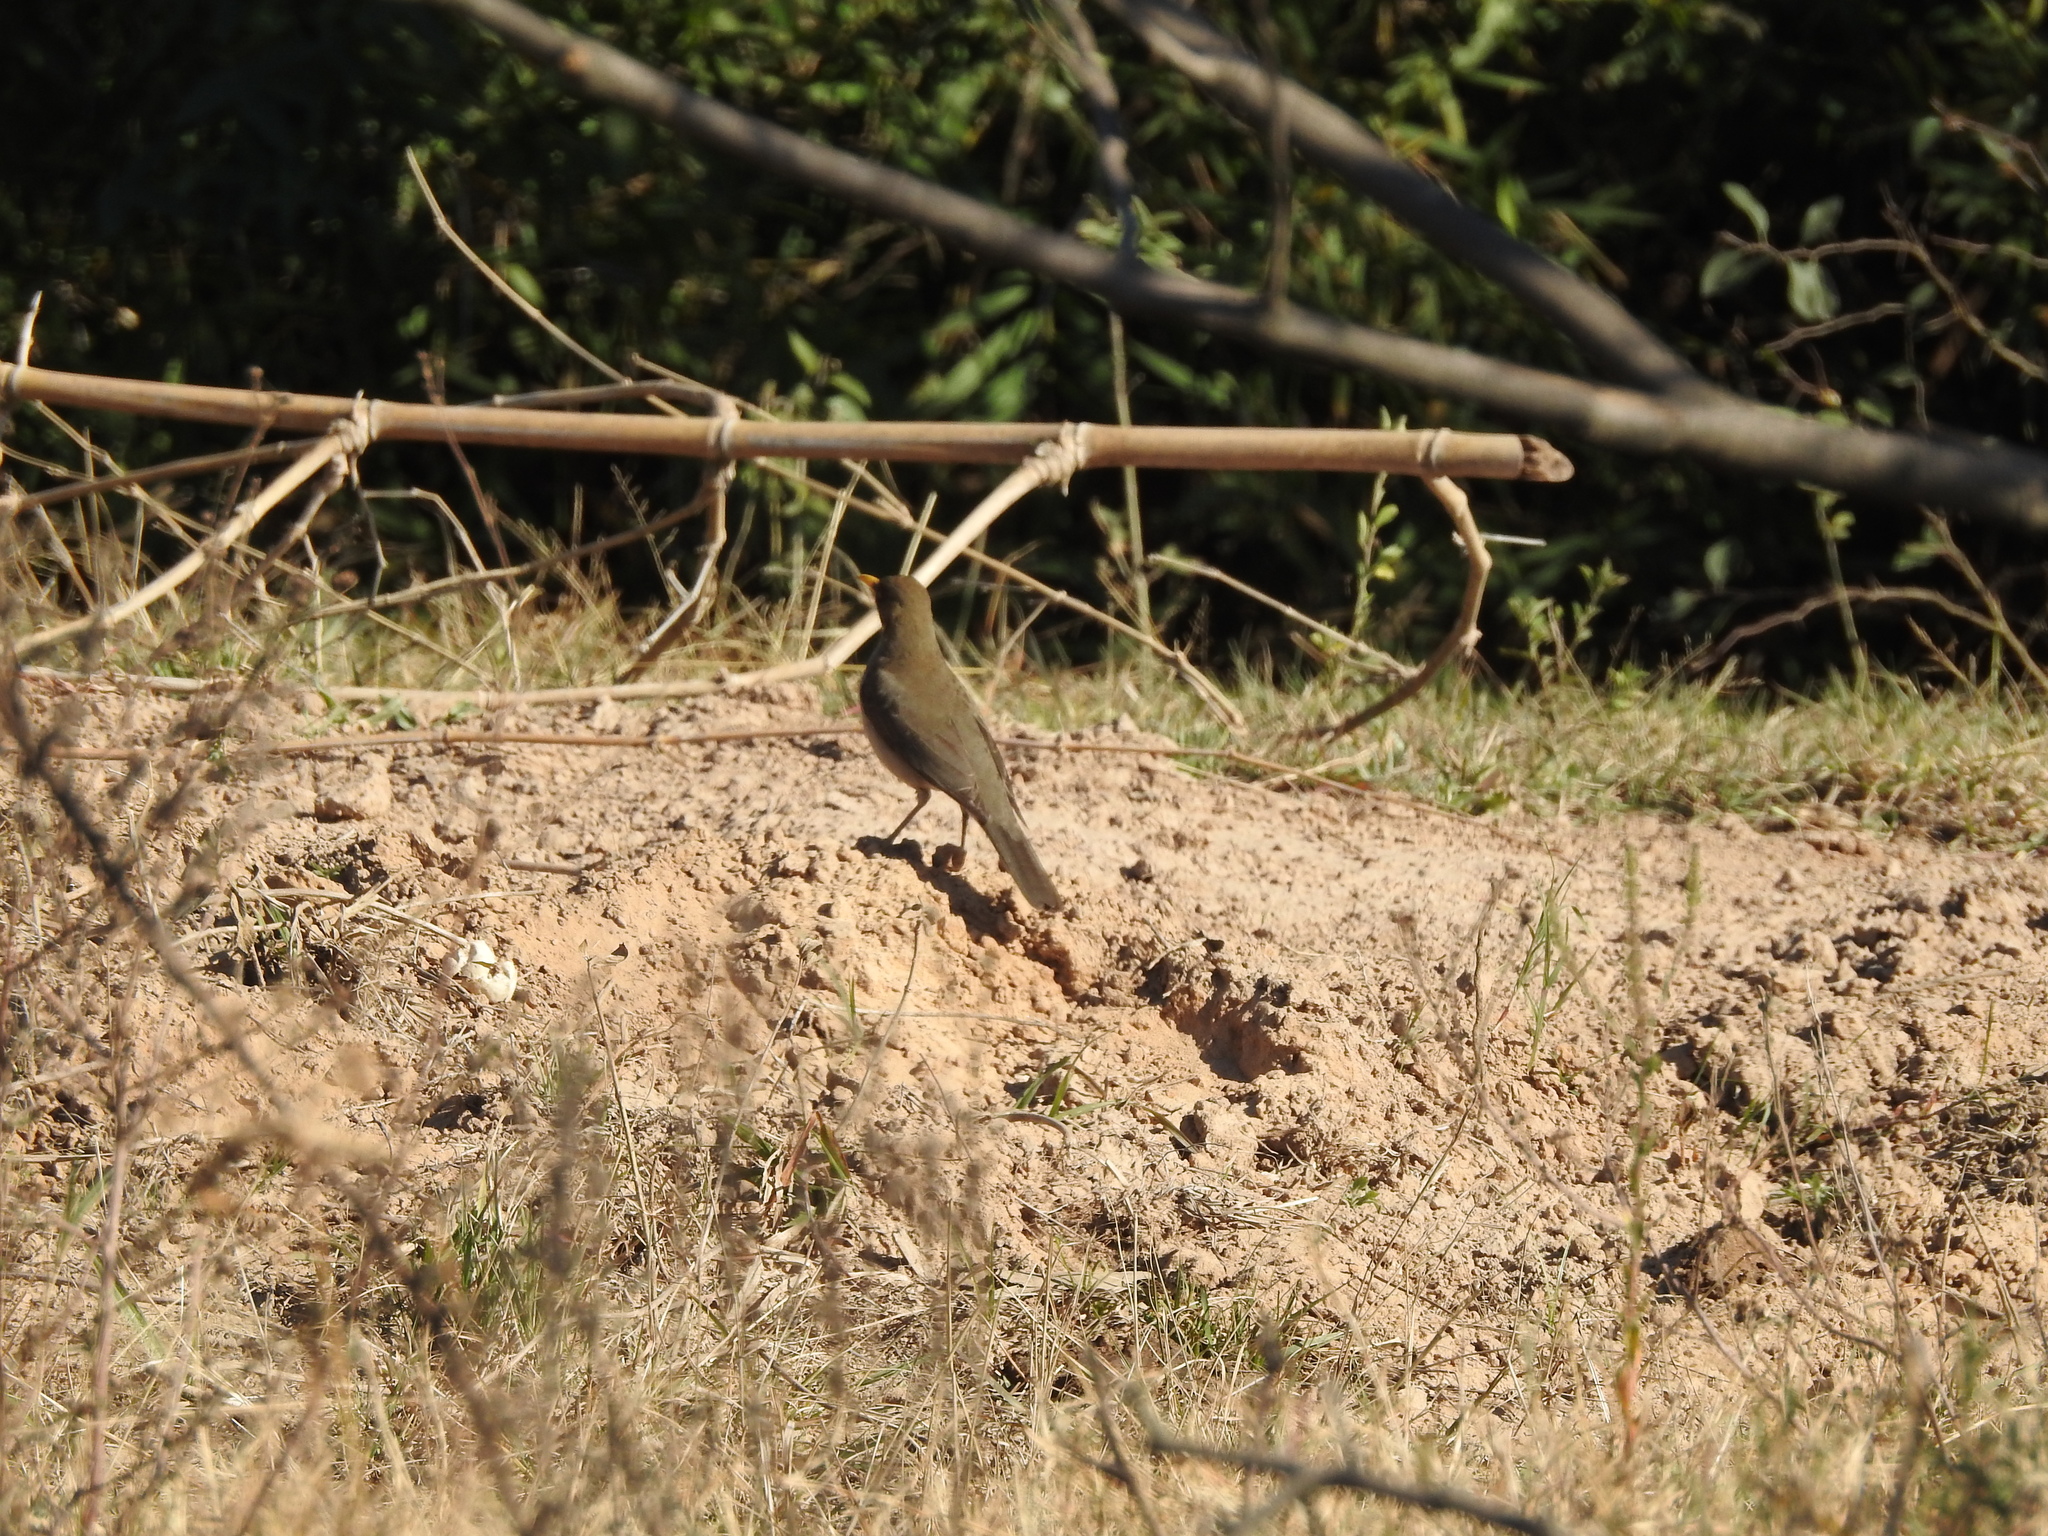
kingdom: Animalia
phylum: Chordata
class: Aves
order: Passeriformes
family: Turdidae
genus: Turdus
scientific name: Turdus amaurochalinus
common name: Creamy-bellied thrush
